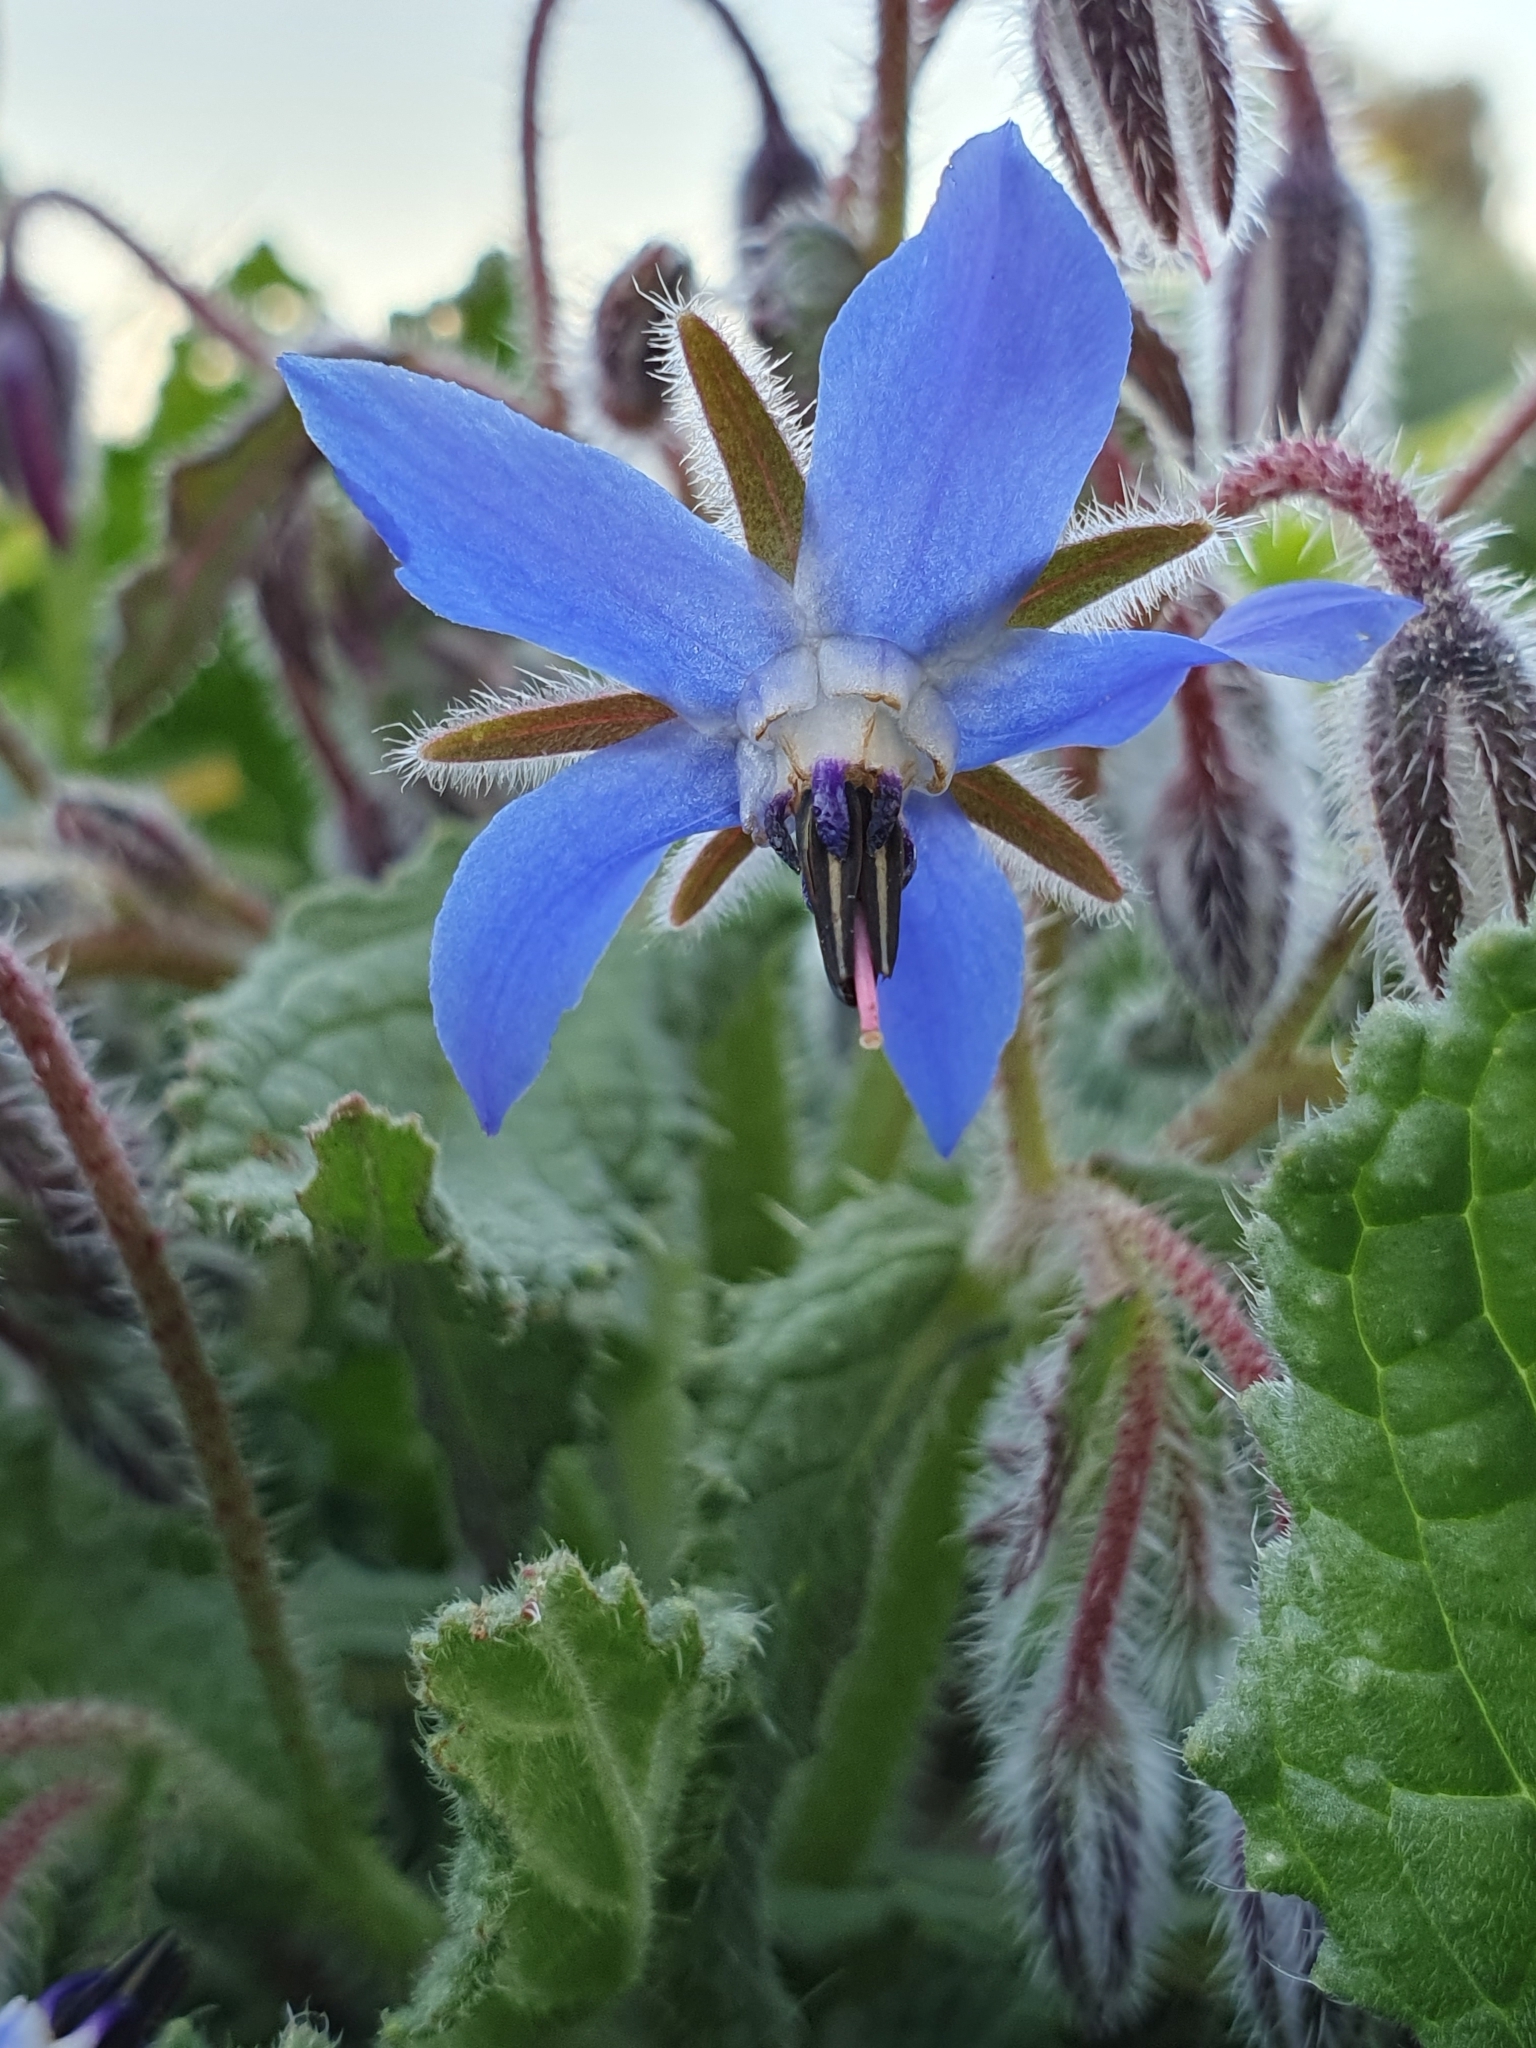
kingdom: Plantae
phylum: Tracheophyta
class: Magnoliopsida
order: Boraginales
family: Boraginaceae
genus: Borago
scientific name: Borago officinalis
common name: Borage
